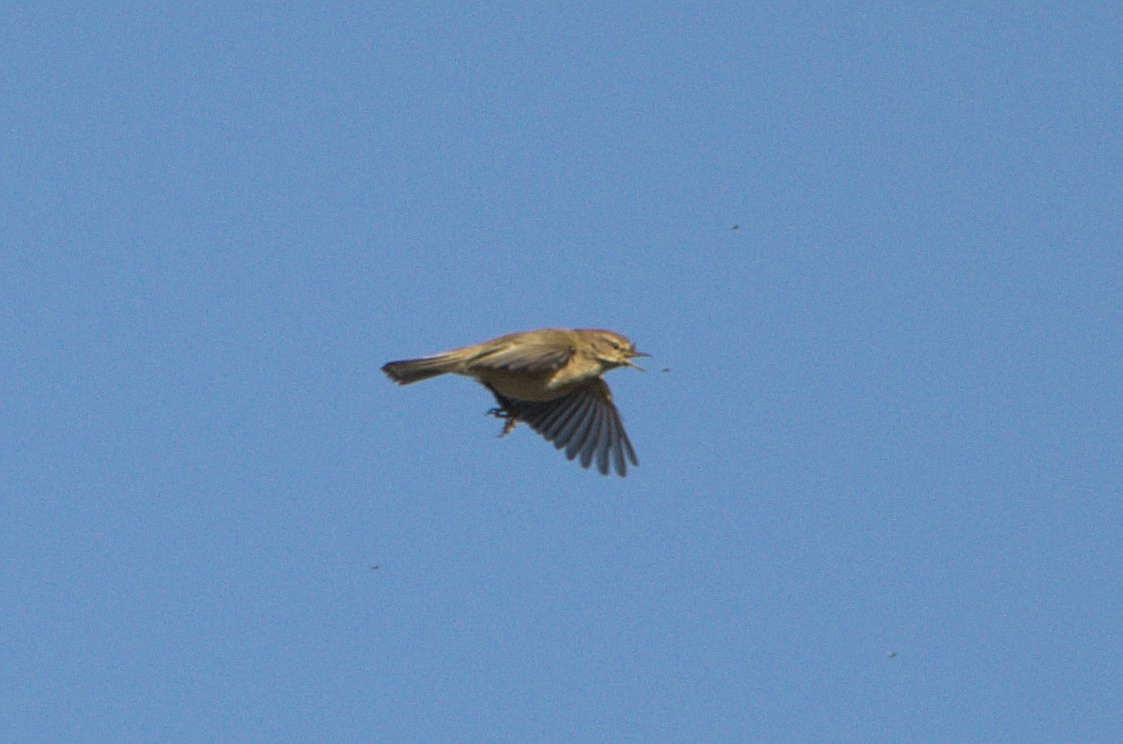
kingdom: Animalia
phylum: Chordata
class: Aves
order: Passeriformes
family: Phylloscopidae
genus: Phylloscopus
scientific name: Phylloscopus collybita
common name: Common chiffchaff
